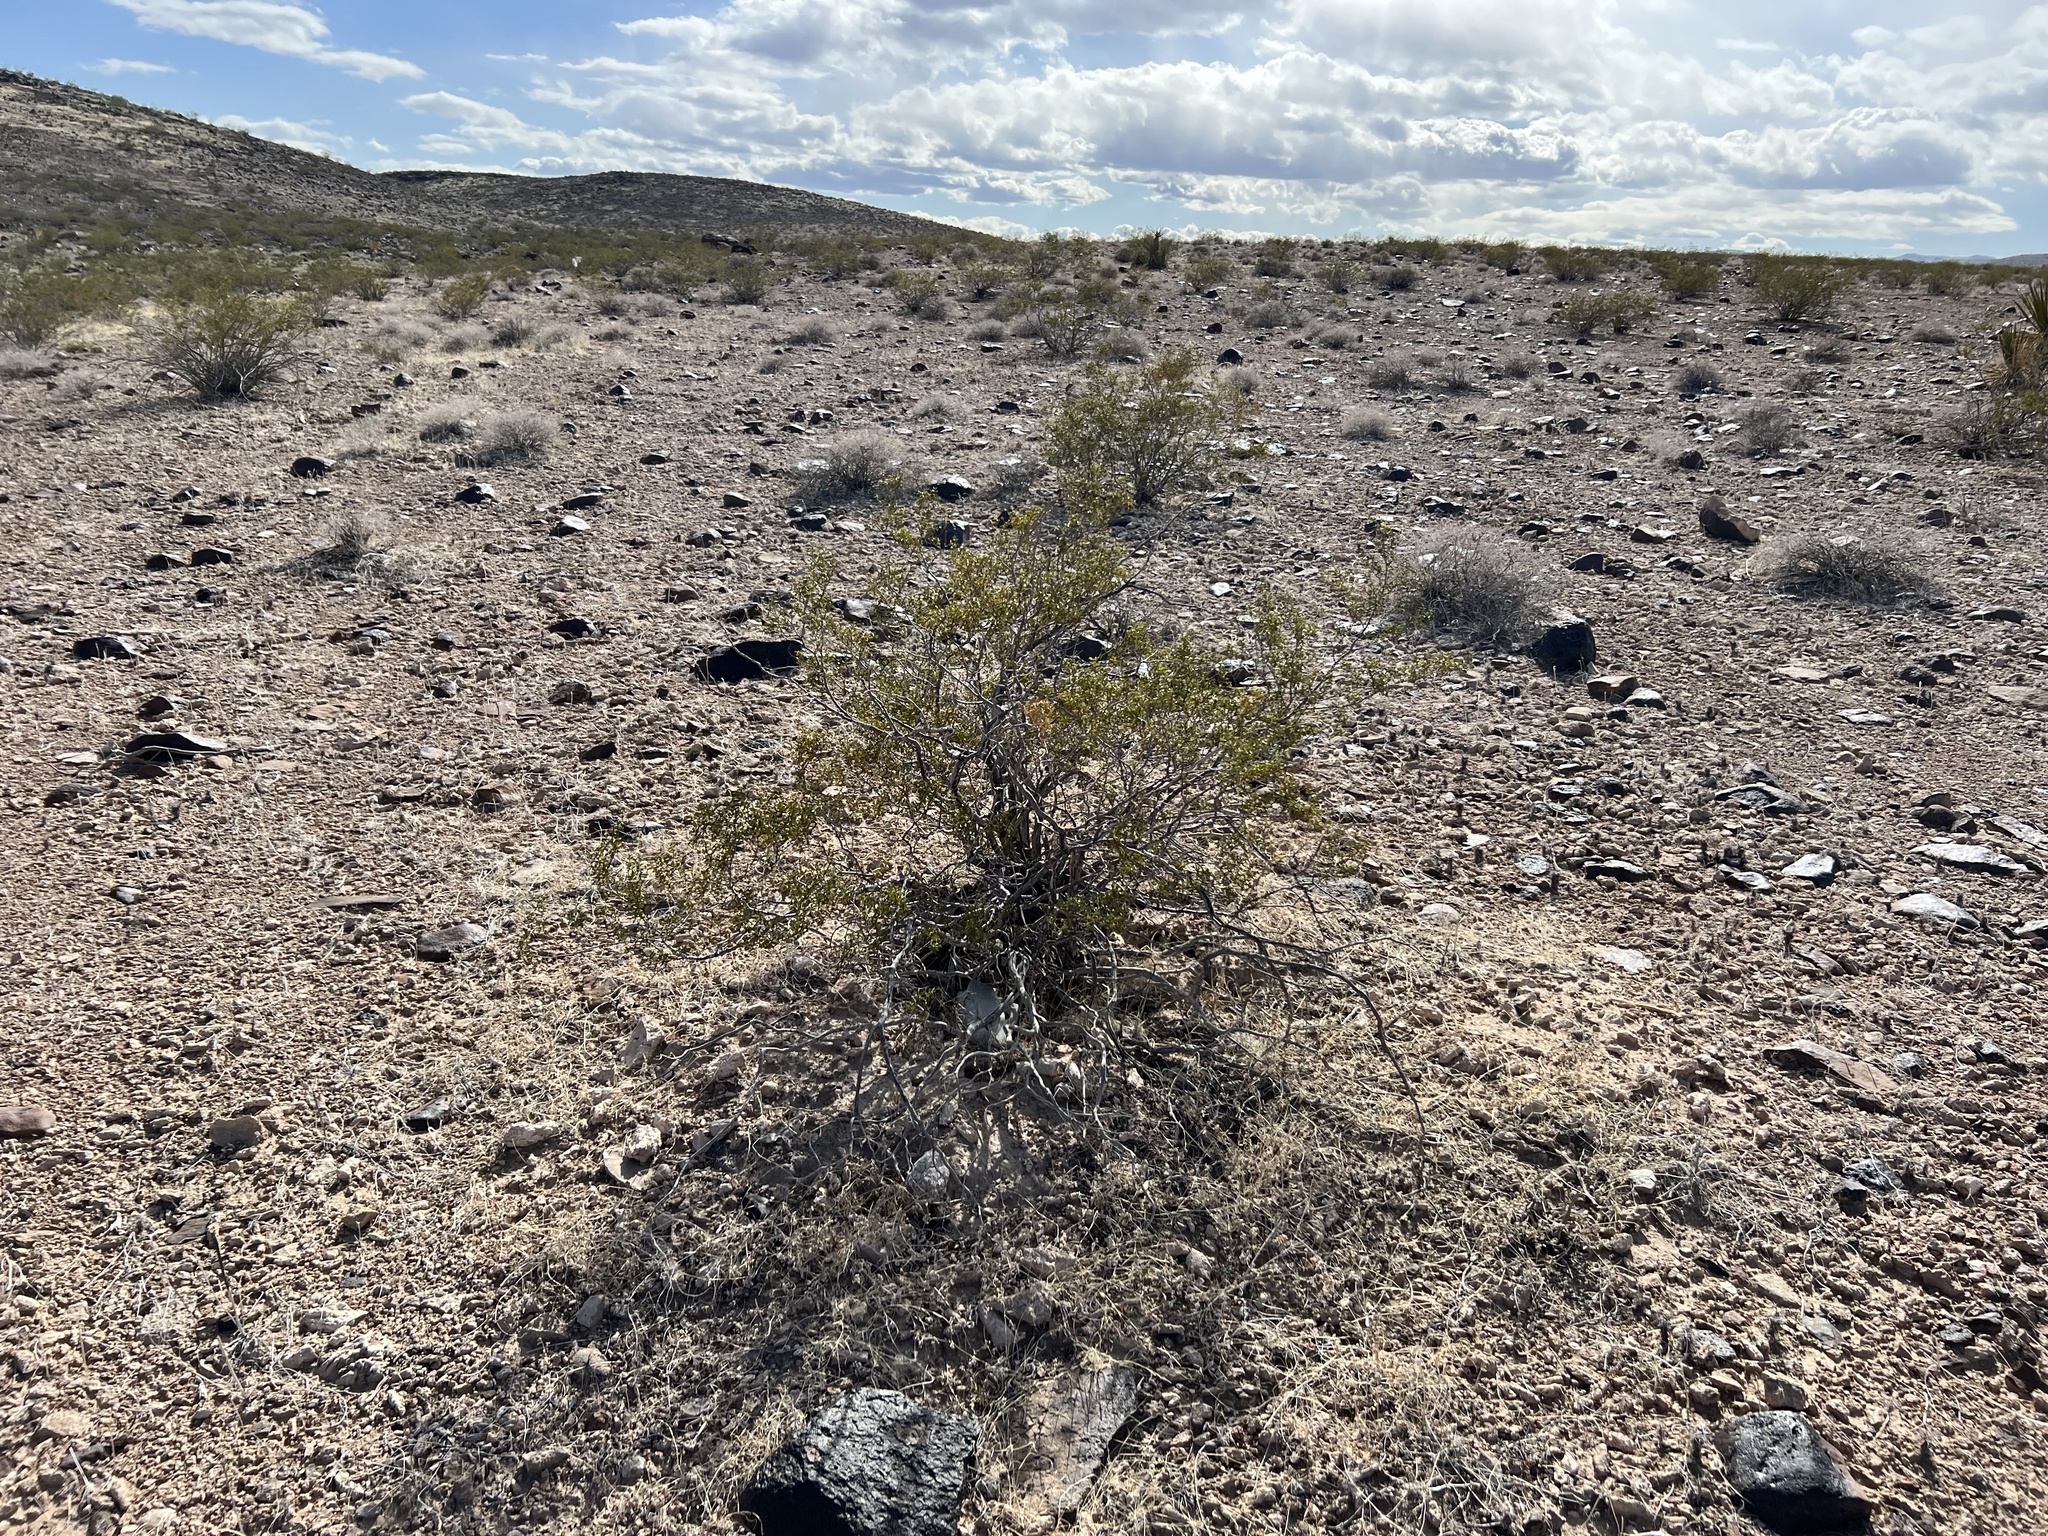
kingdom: Plantae
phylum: Tracheophyta
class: Magnoliopsida
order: Zygophyllales
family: Zygophyllaceae
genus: Larrea
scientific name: Larrea tridentata
